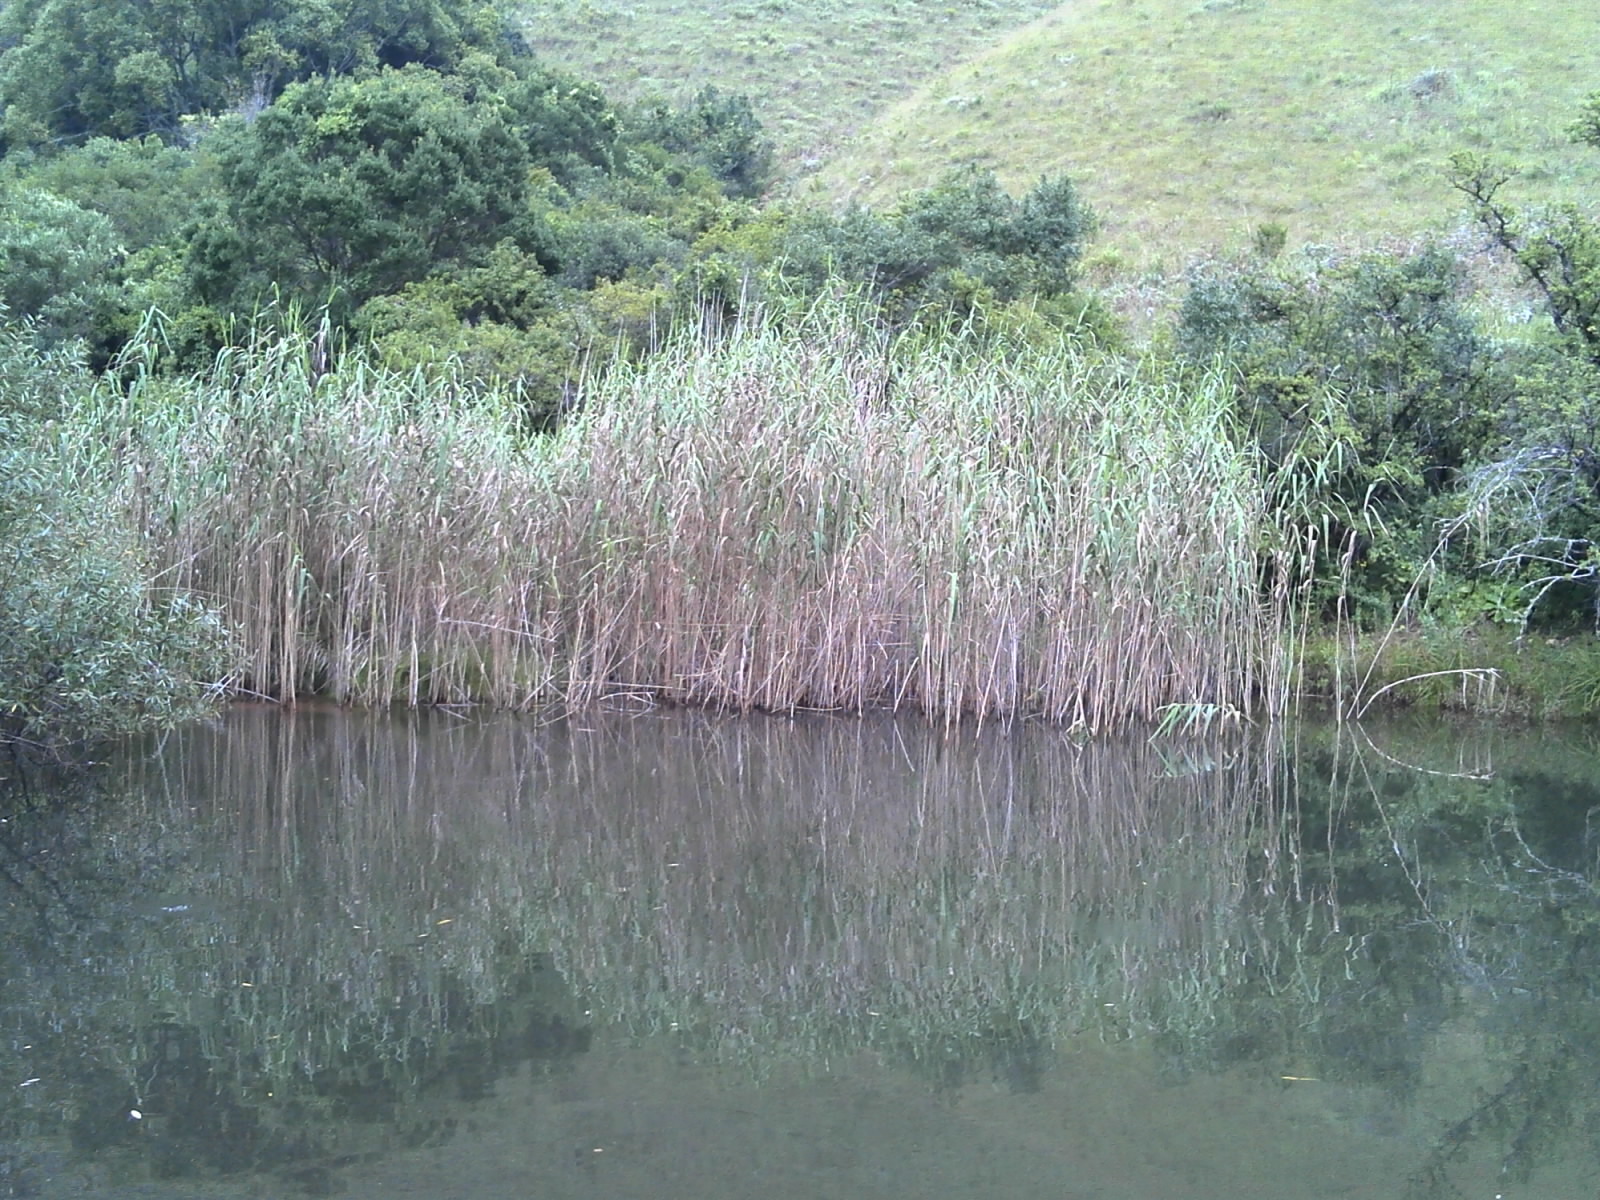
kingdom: Plantae
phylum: Tracheophyta
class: Liliopsida
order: Poales
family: Poaceae
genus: Phragmites
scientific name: Phragmites australis
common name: Common reed
